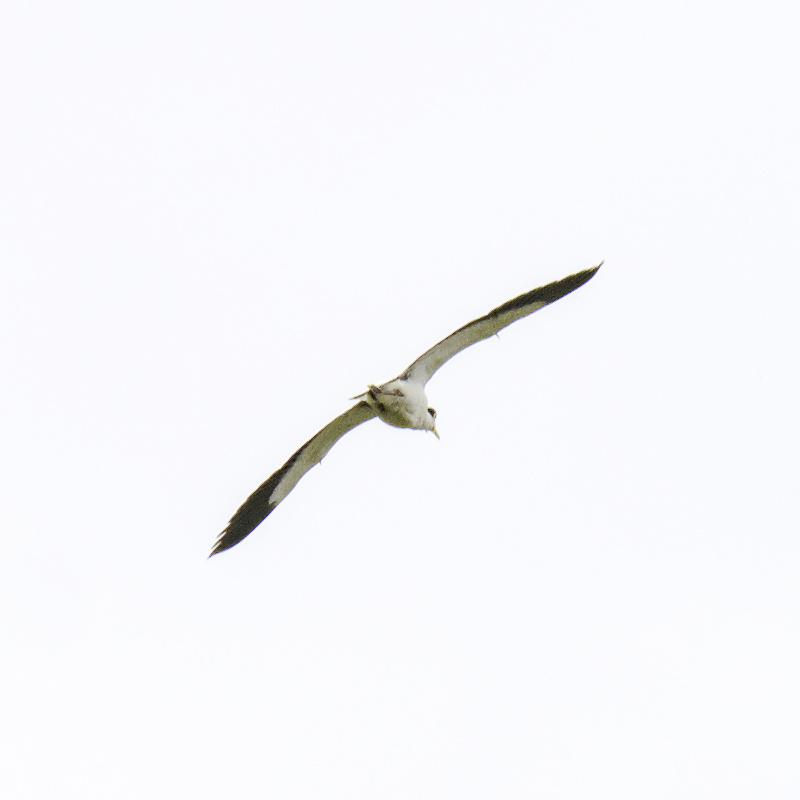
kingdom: Animalia
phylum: Chordata
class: Aves
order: Charadriiformes
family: Charadriidae
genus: Vanellus
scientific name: Vanellus miles
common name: Masked lapwing
